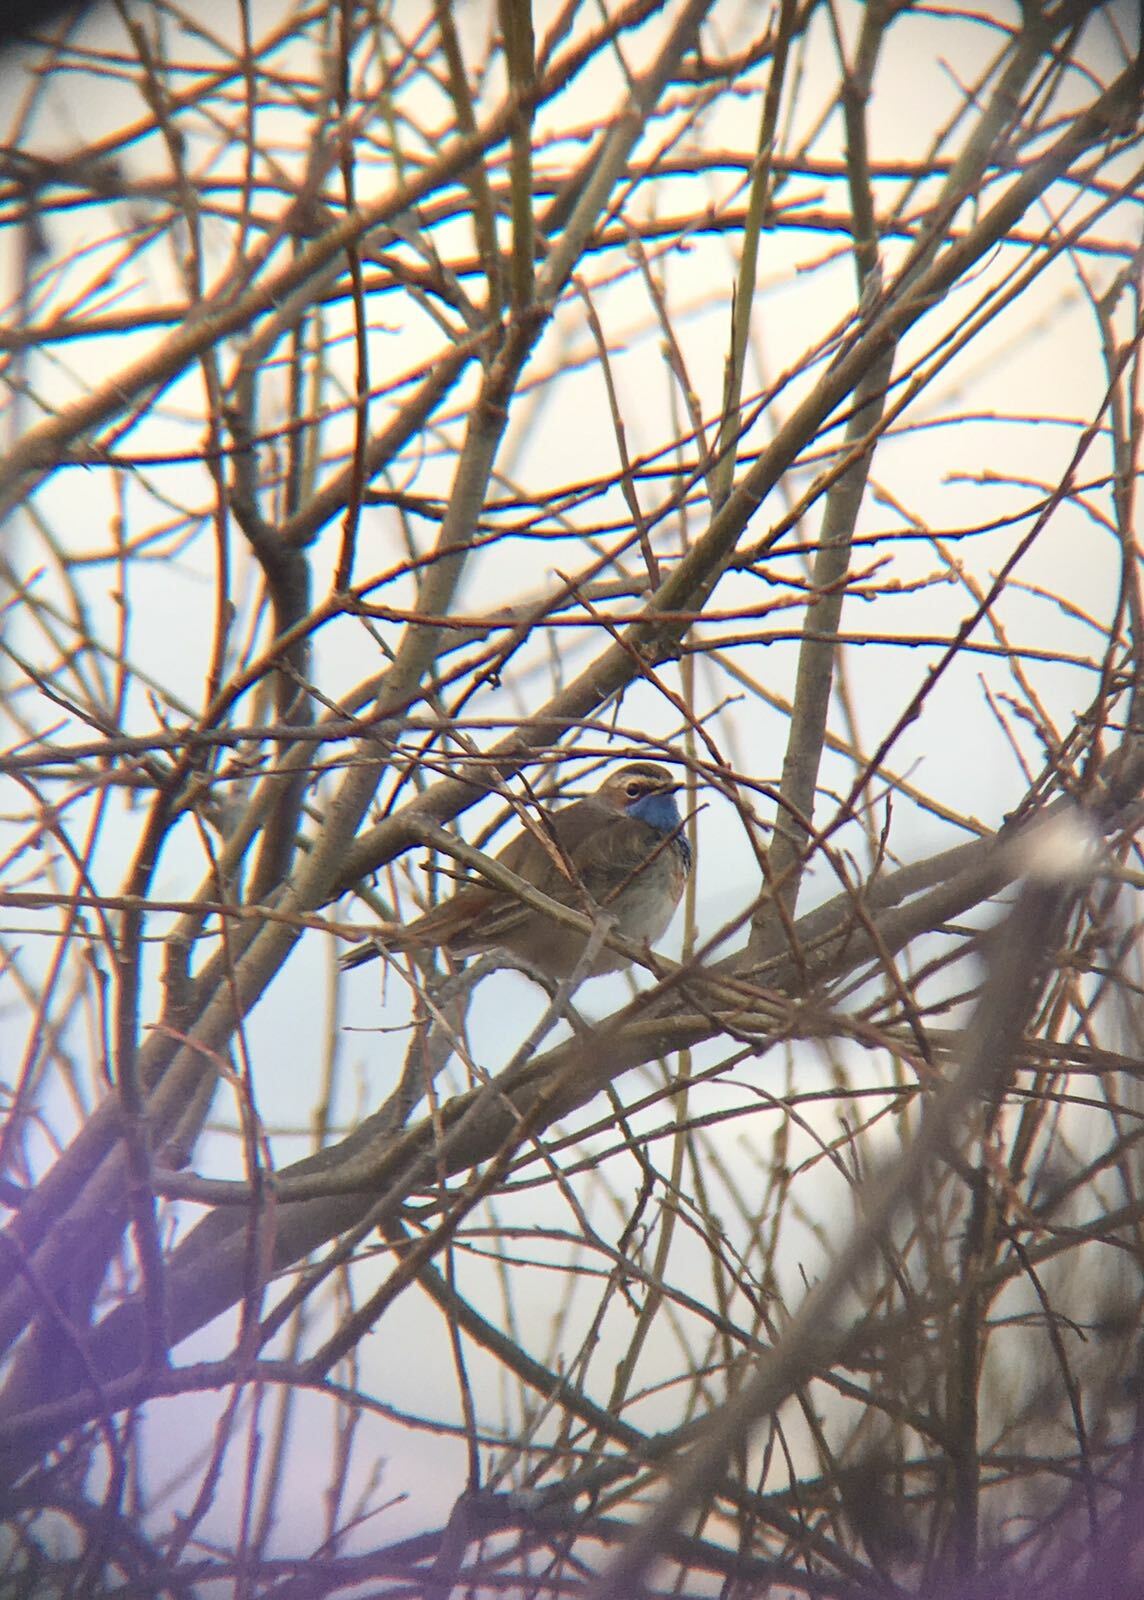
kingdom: Animalia
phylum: Chordata
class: Aves
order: Passeriformes
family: Muscicapidae
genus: Luscinia
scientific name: Luscinia svecica
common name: Bluethroat
